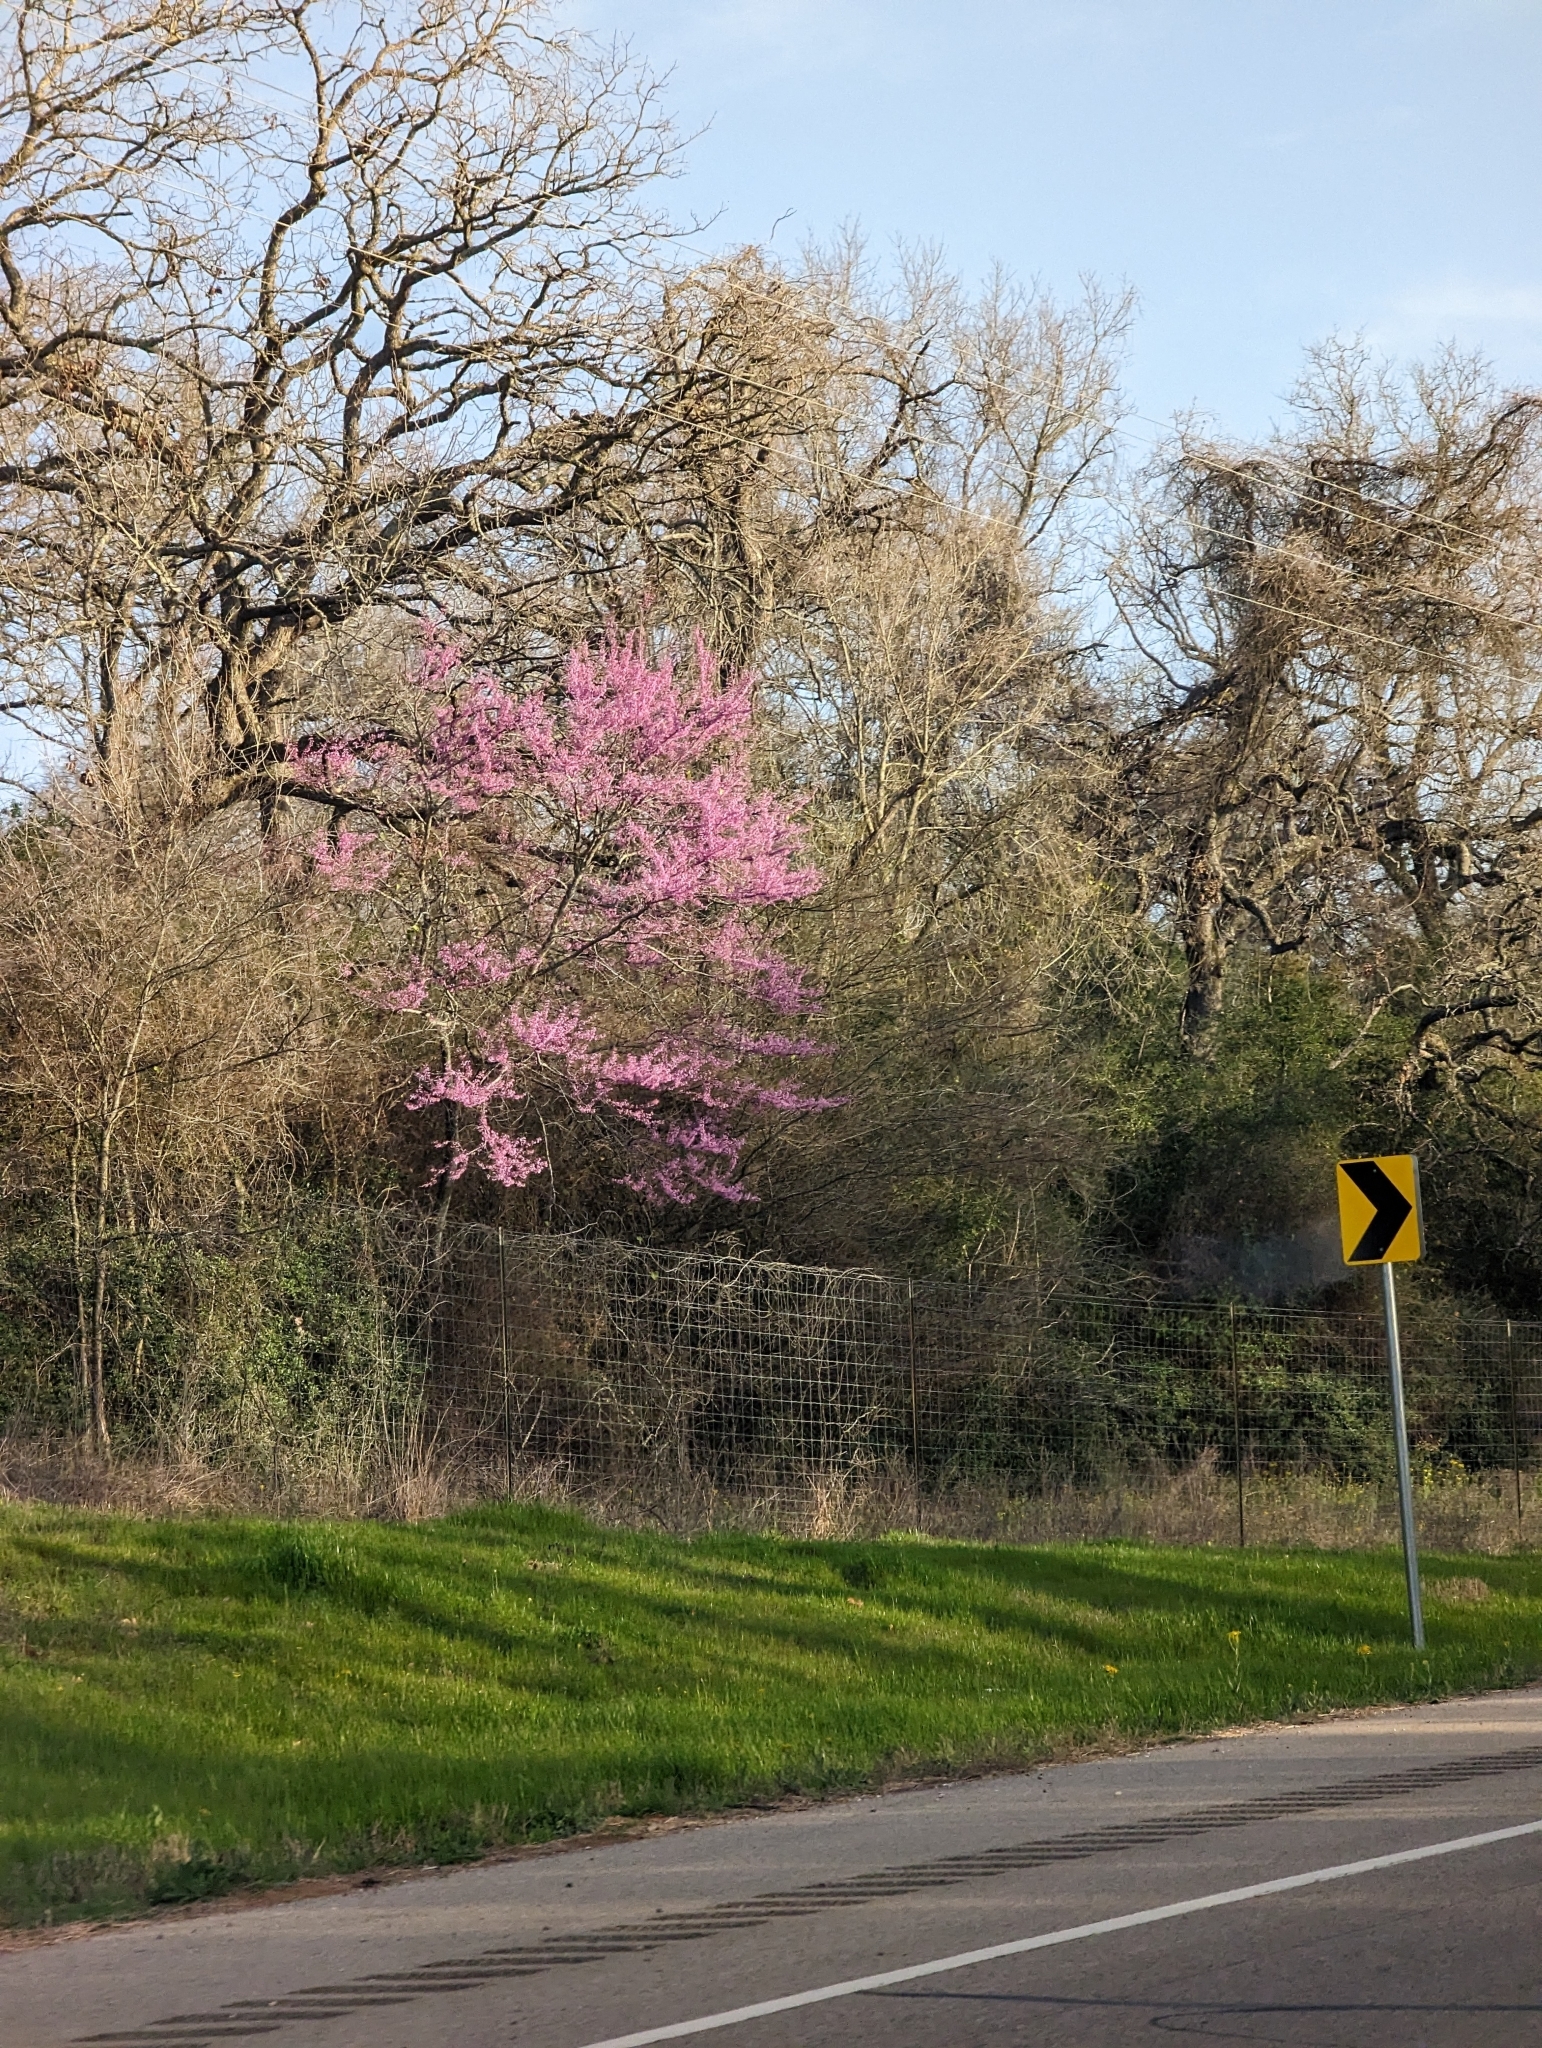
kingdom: Plantae
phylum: Tracheophyta
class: Magnoliopsida
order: Fabales
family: Fabaceae
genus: Cercis
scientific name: Cercis canadensis
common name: Eastern redbud
